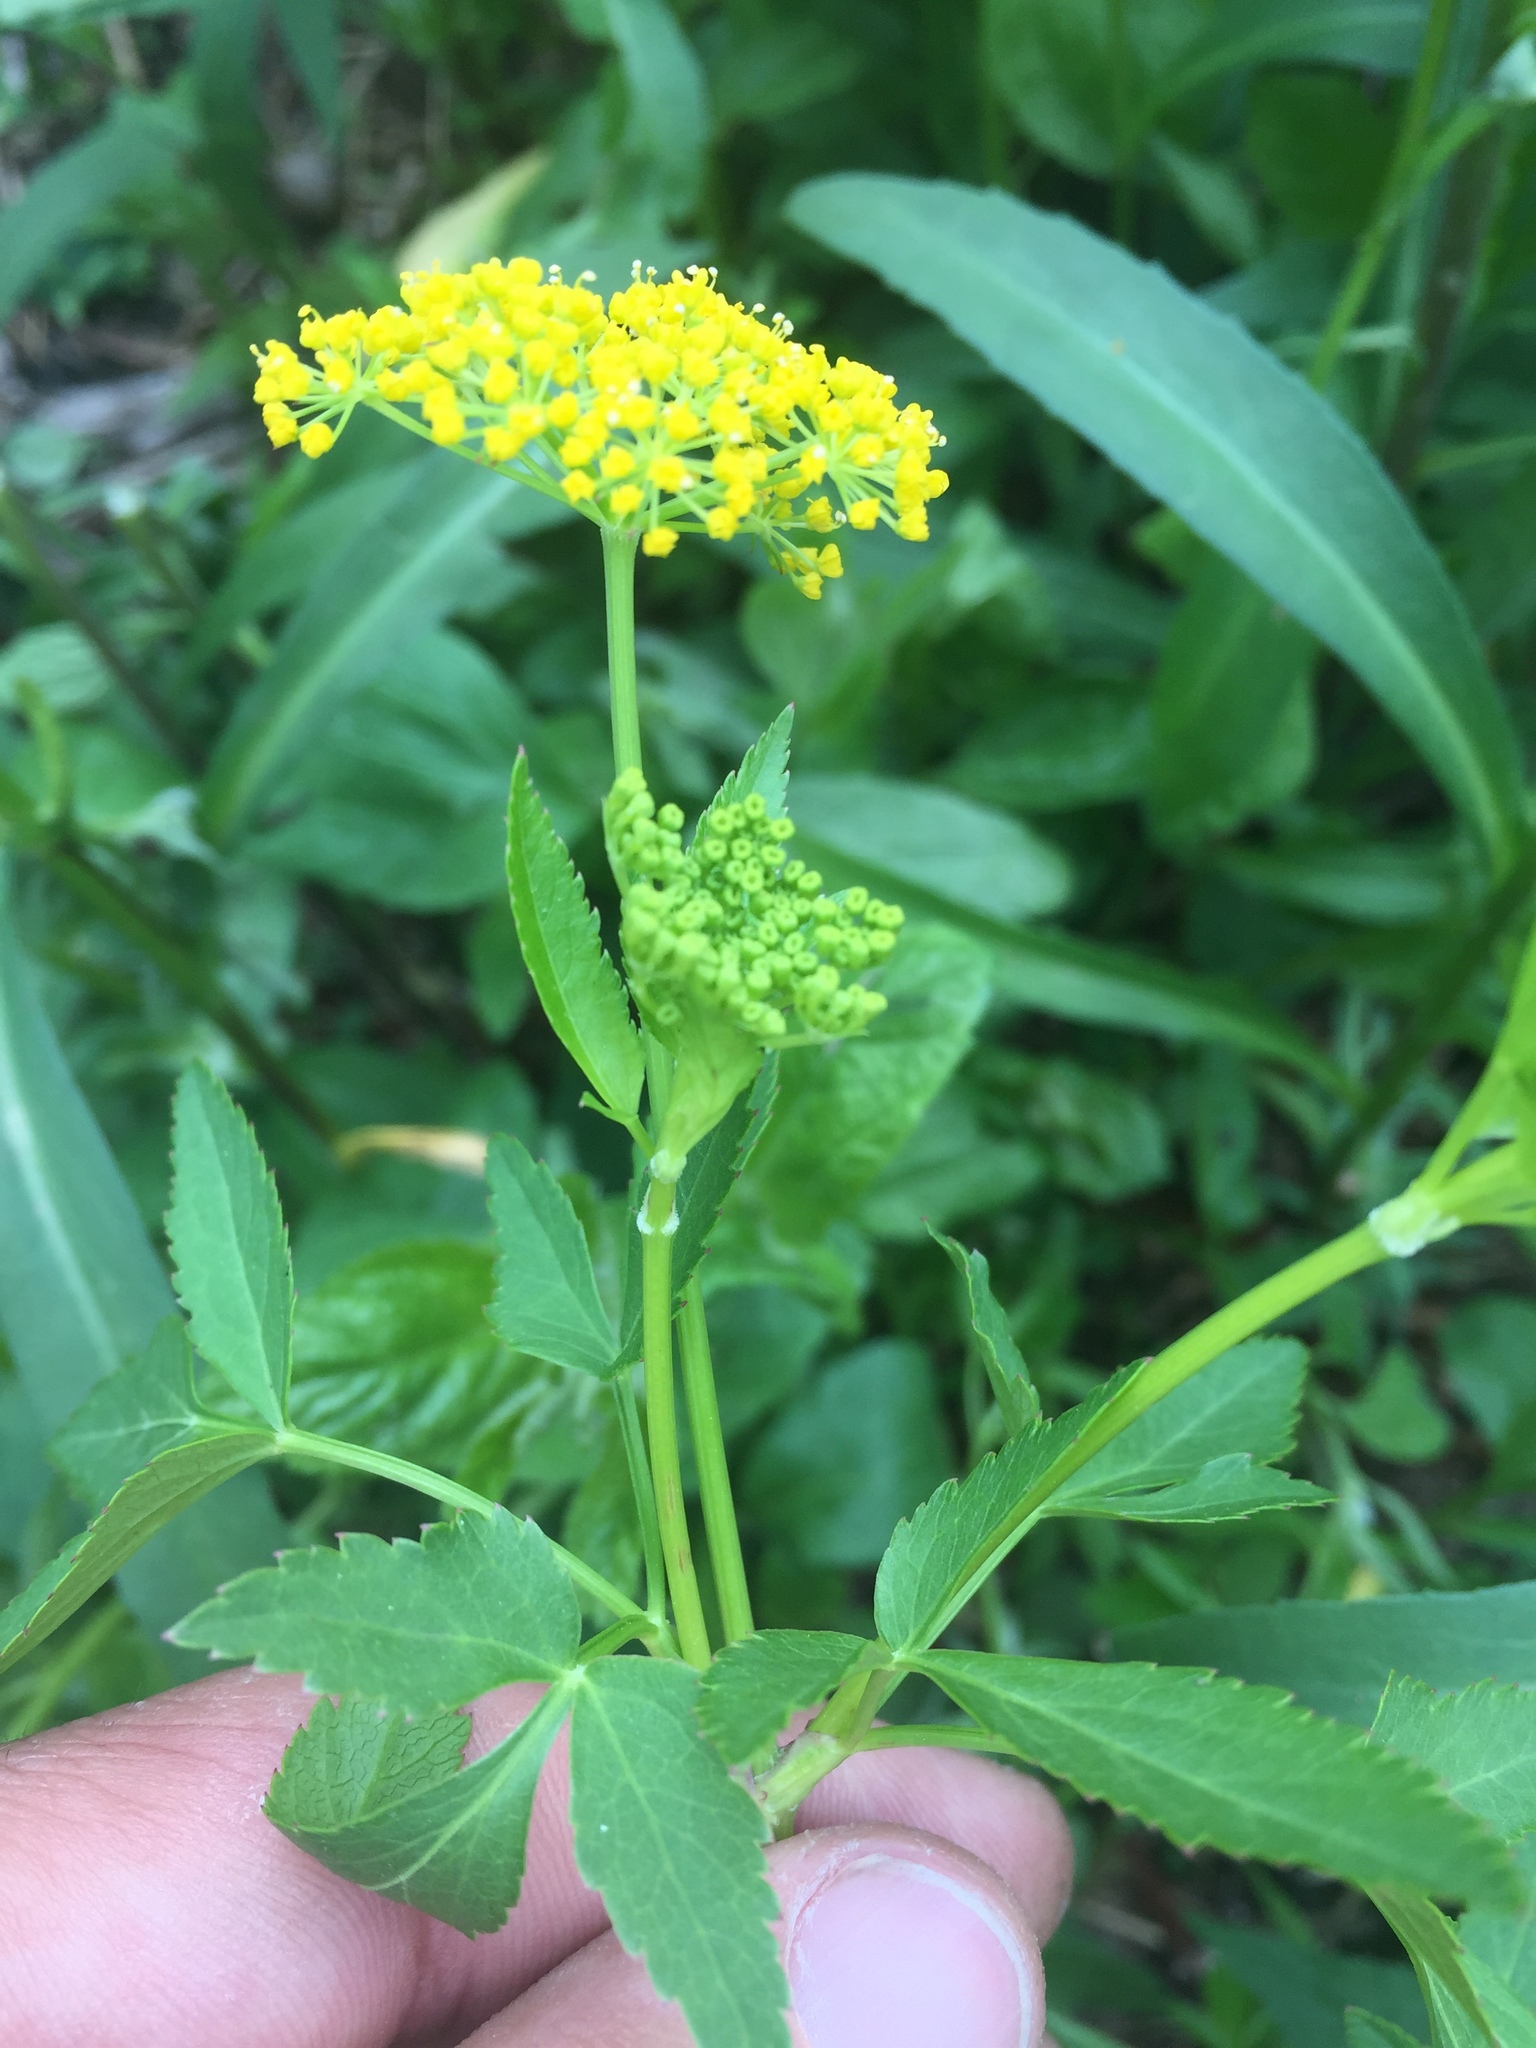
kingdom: Plantae
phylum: Tracheophyta
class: Magnoliopsida
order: Apiales
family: Apiaceae
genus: Zizia
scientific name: Zizia aurea
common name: Golden alexanders
